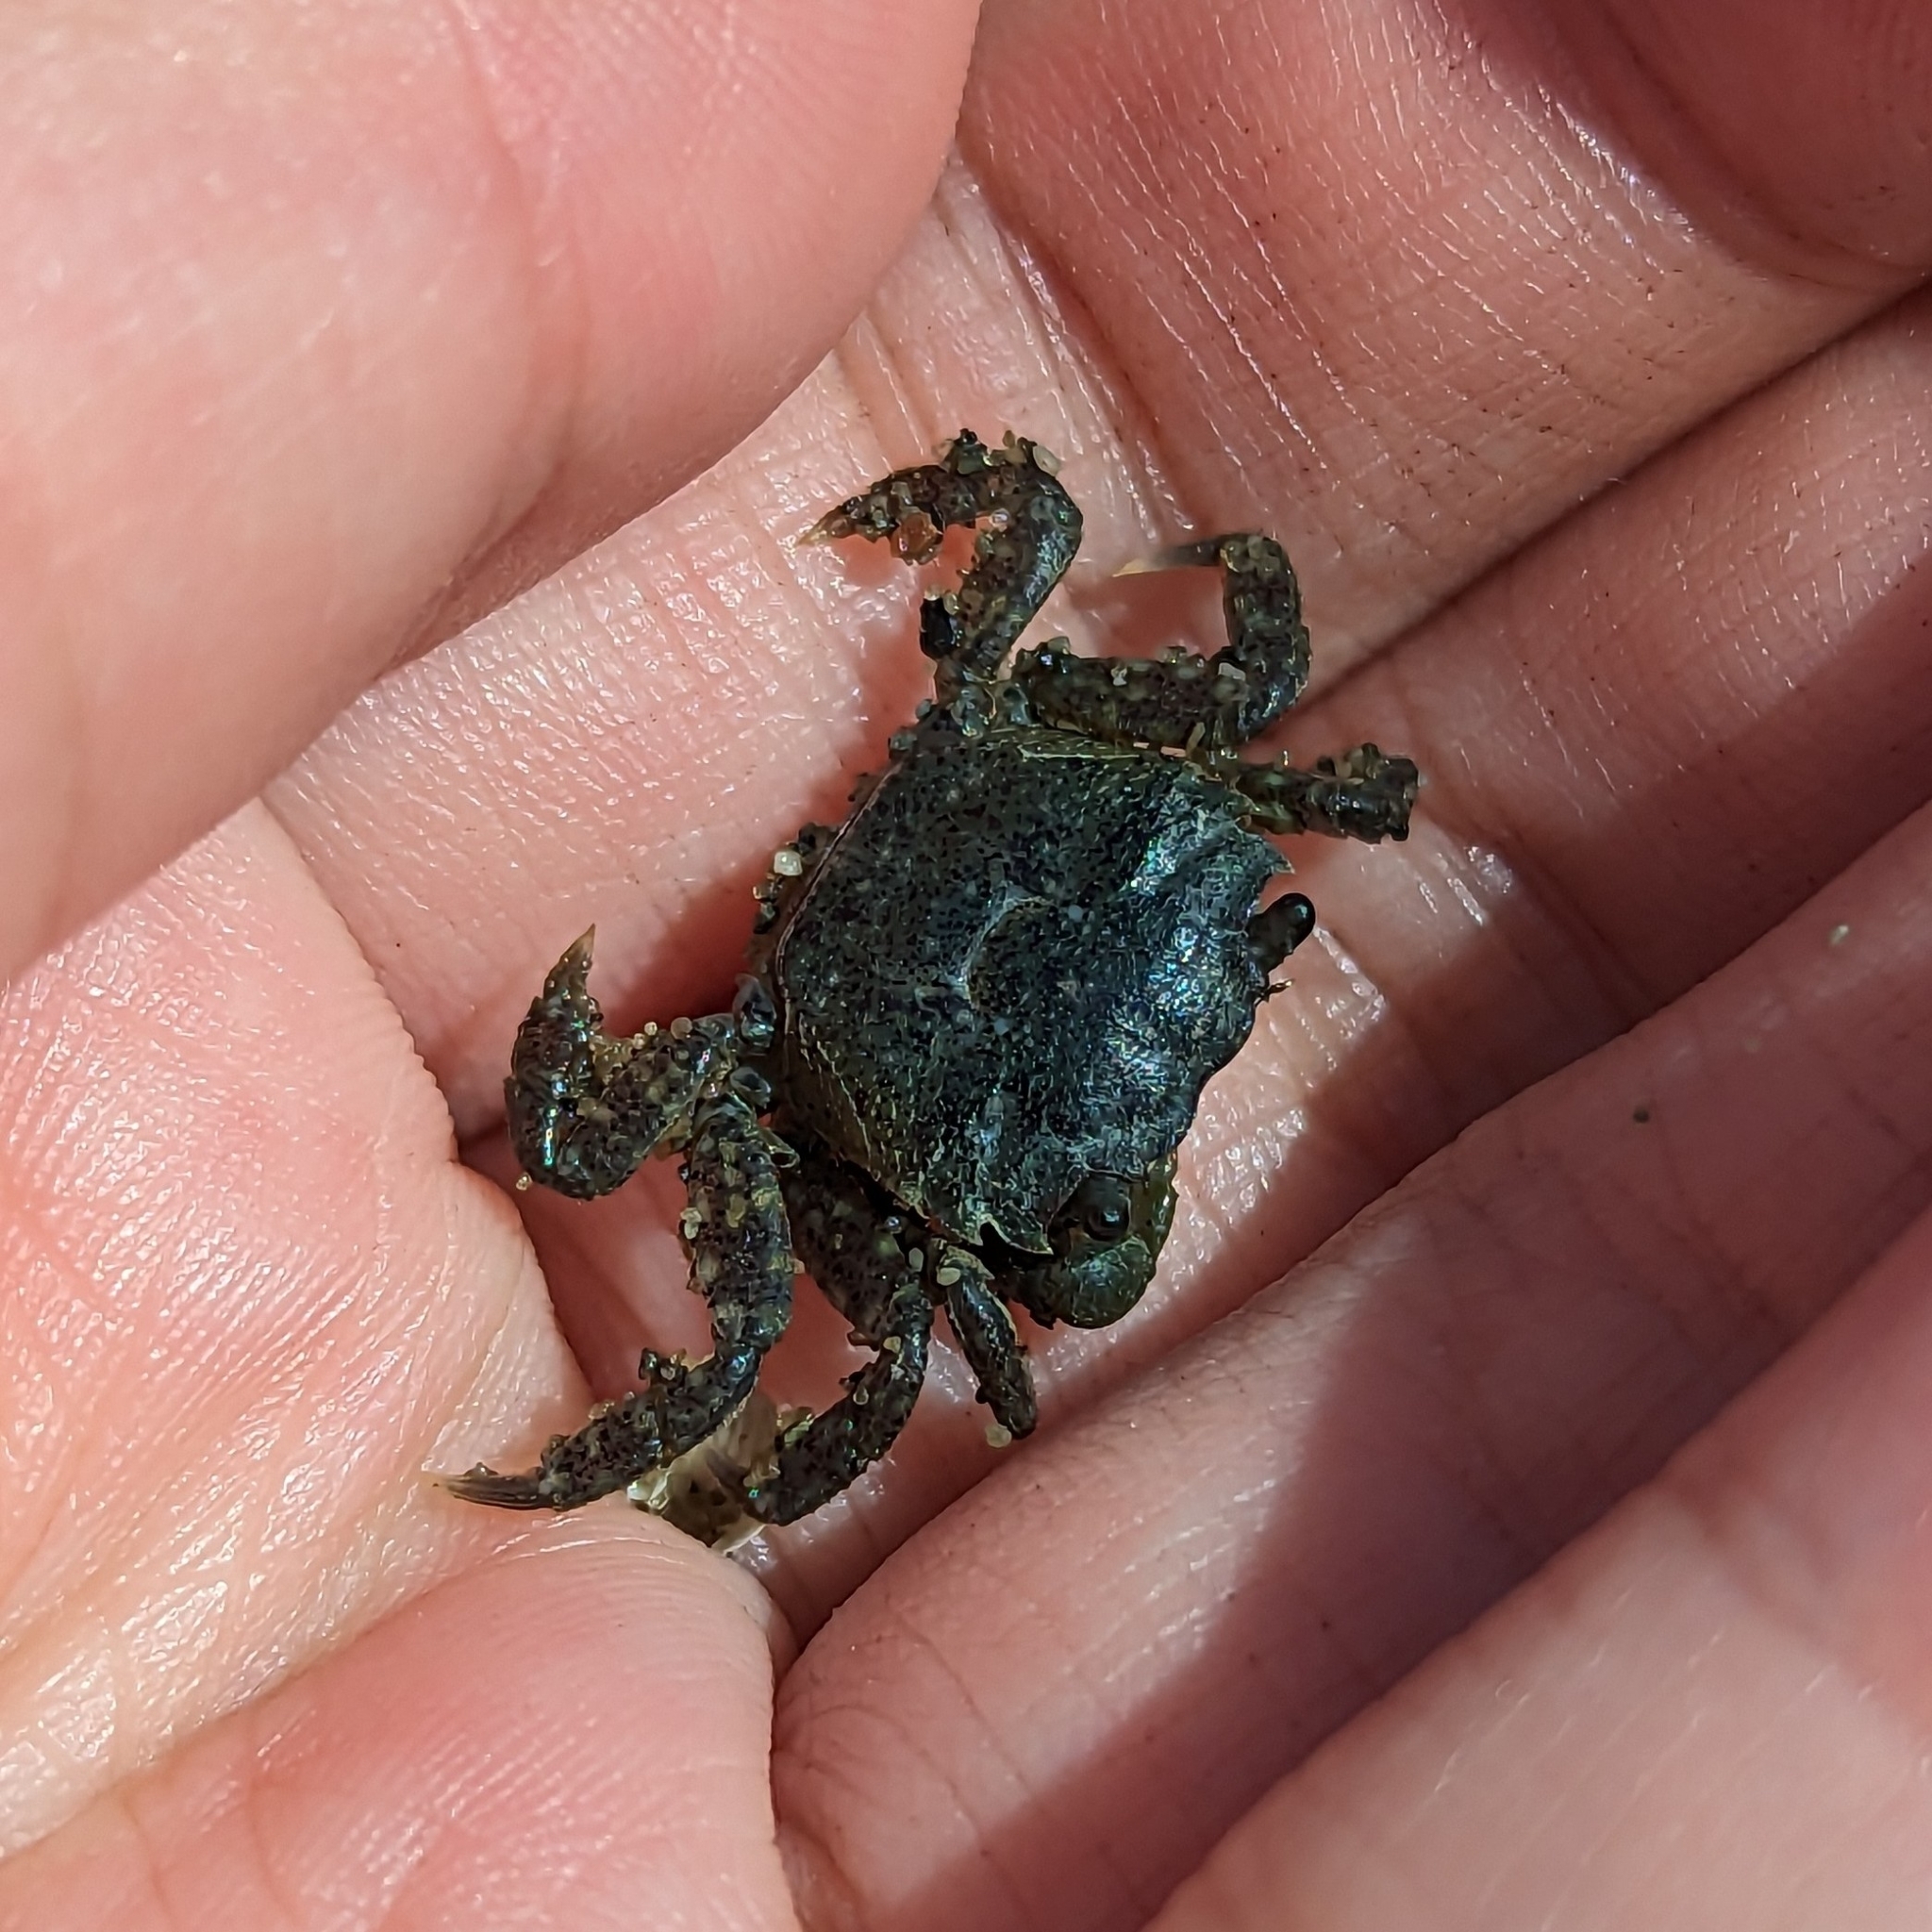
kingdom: Animalia
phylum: Arthropoda
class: Malacostraca
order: Decapoda
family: Varunidae
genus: Hemigrapsus
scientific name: Hemigrapsus oregonensis
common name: Yellow shore crab
